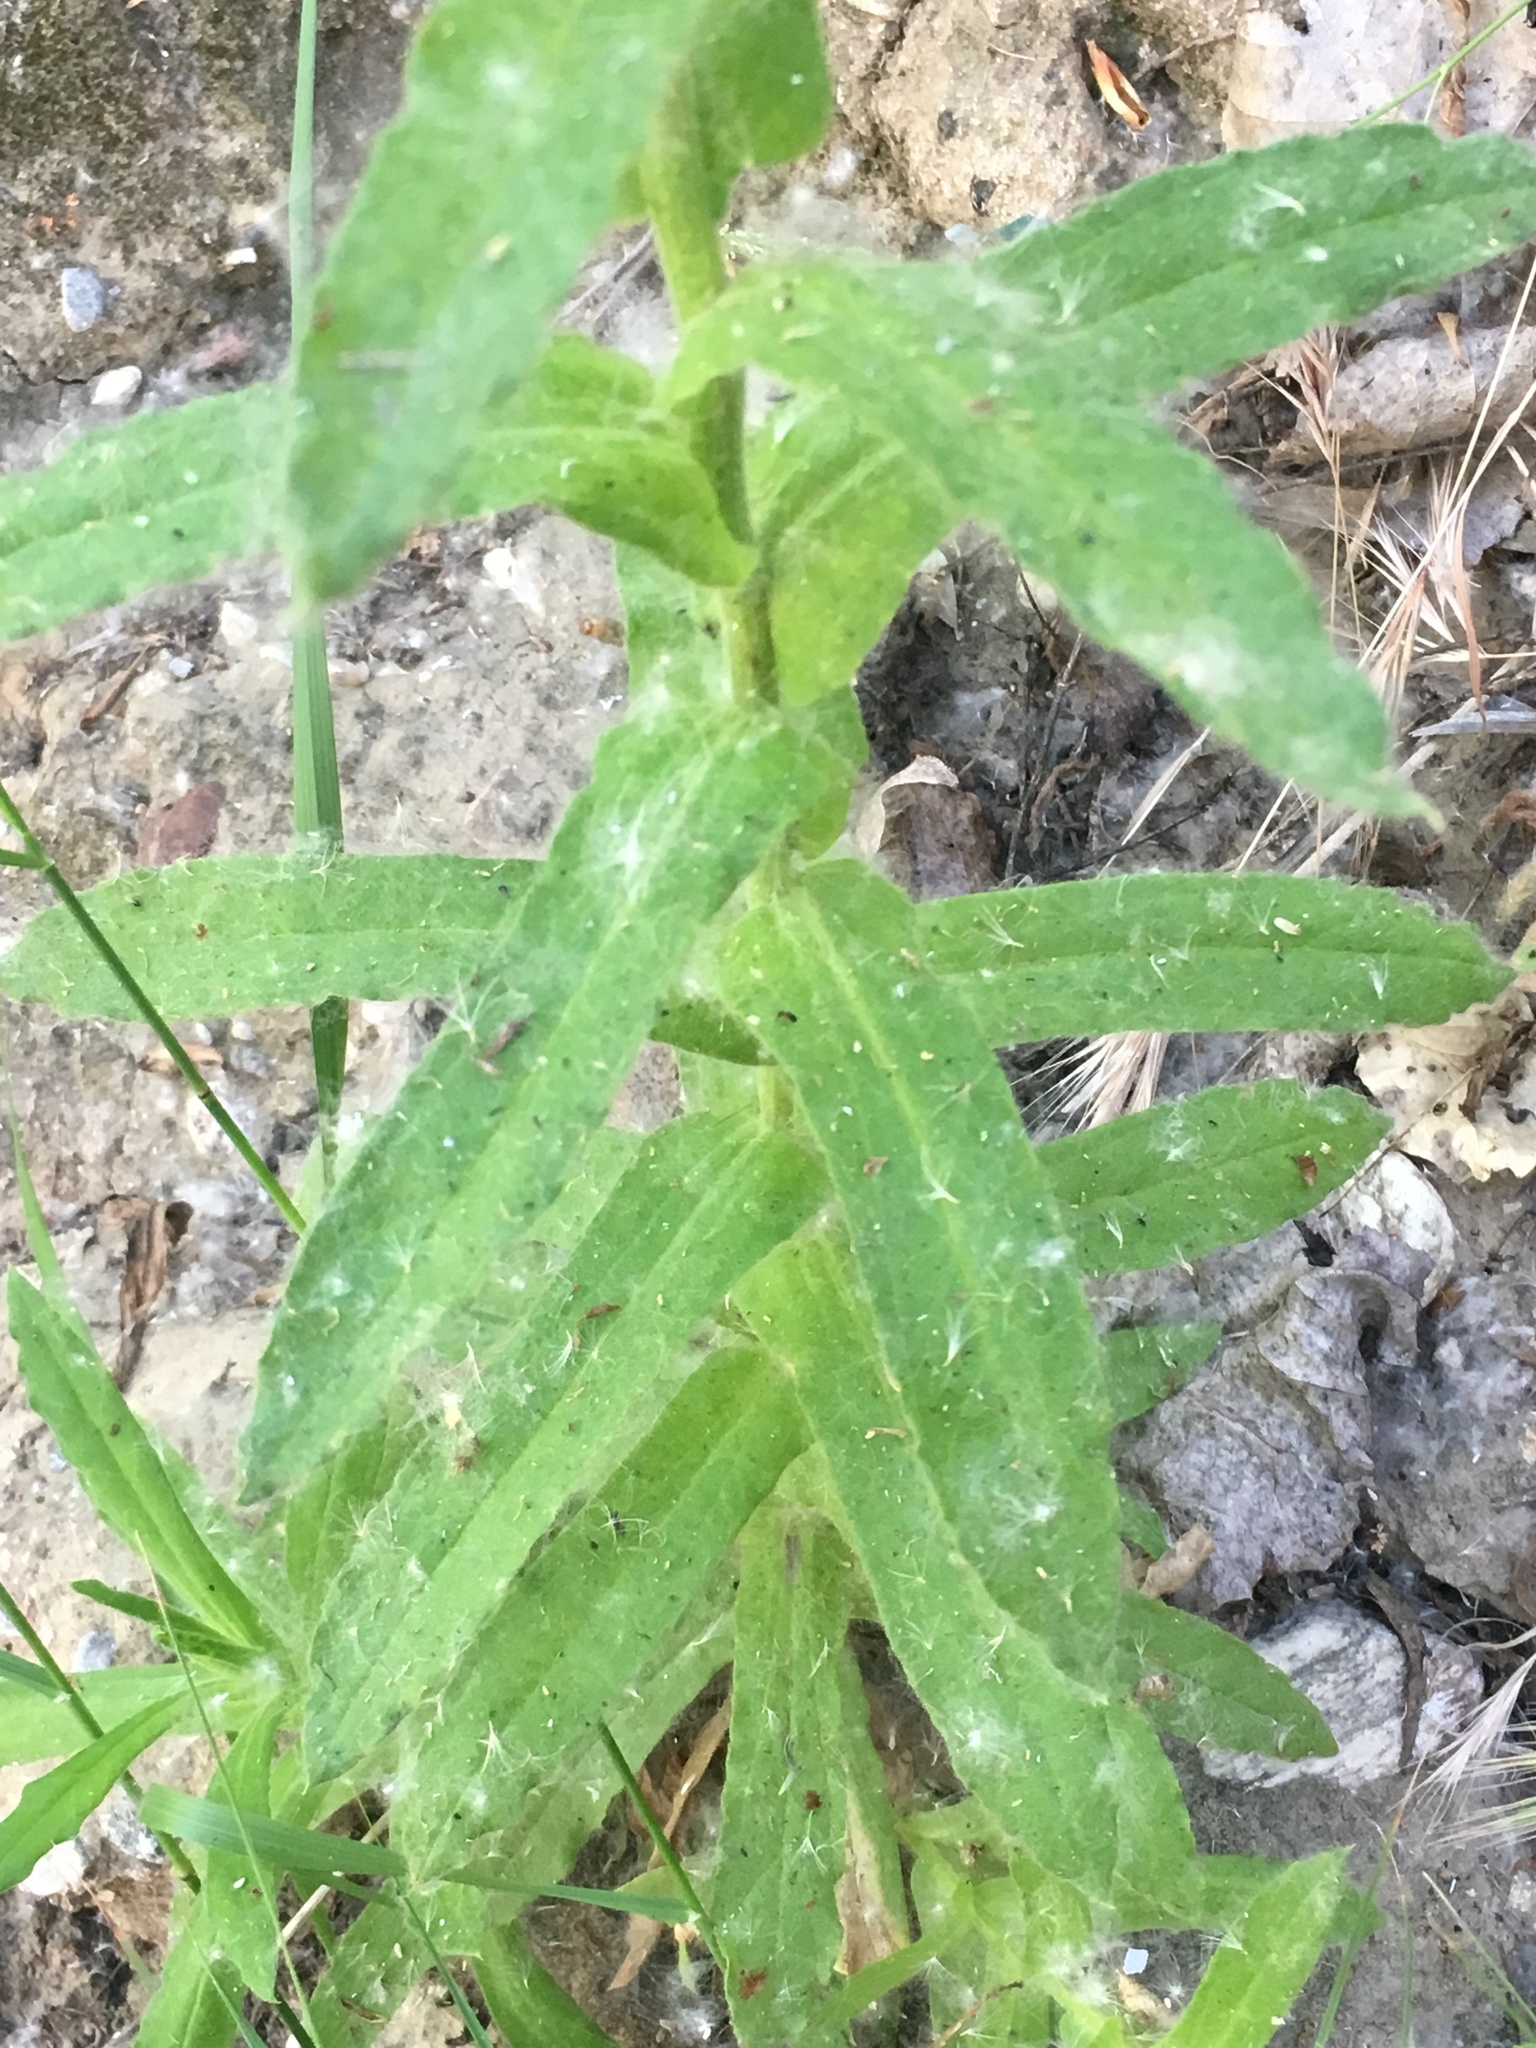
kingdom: Plantae
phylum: Tracheophyta
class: Magnoliopsida
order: Asterales
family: Asteraceae
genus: Pseudognaphalium
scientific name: Pseudognaphalium californicum
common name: California rabbit-tobacco
